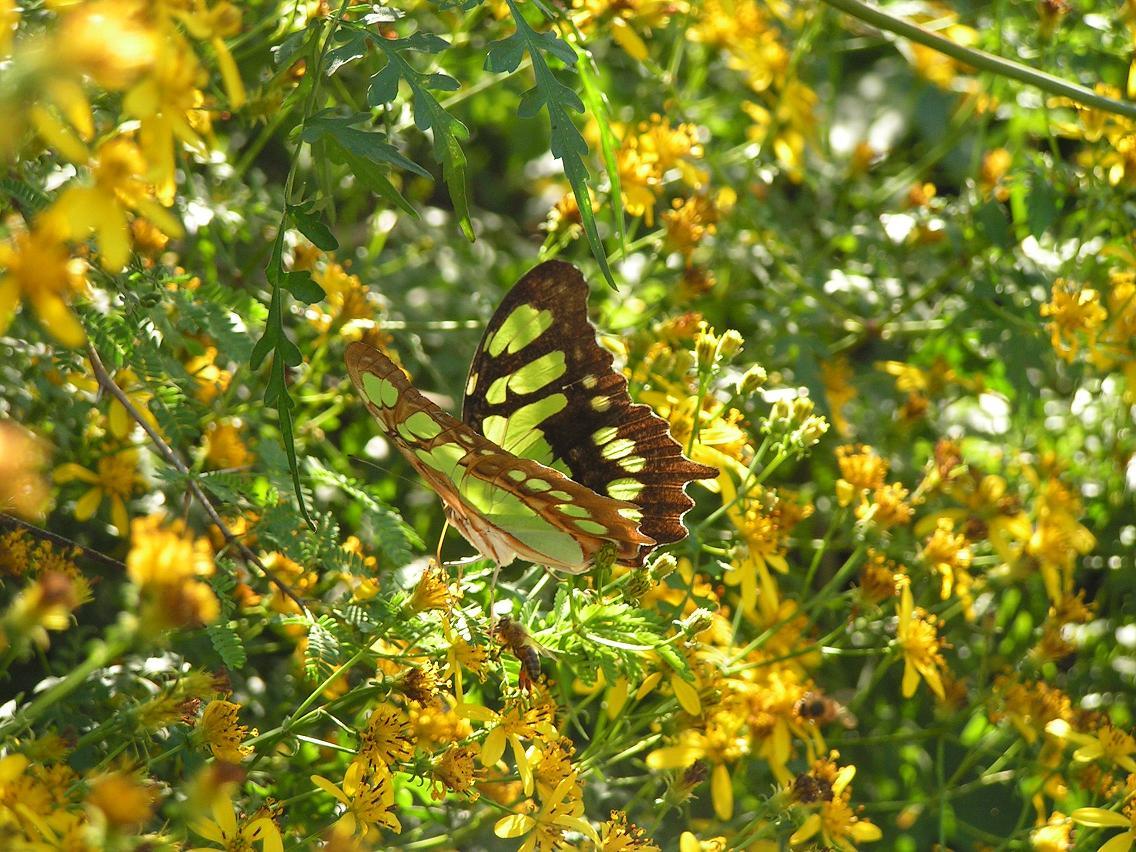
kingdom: Animalia
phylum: Arthropoda
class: Insecta
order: Lepidoptera
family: Nymphalidae
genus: Siproeta
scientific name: Siproeta stelenes
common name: Malachite
